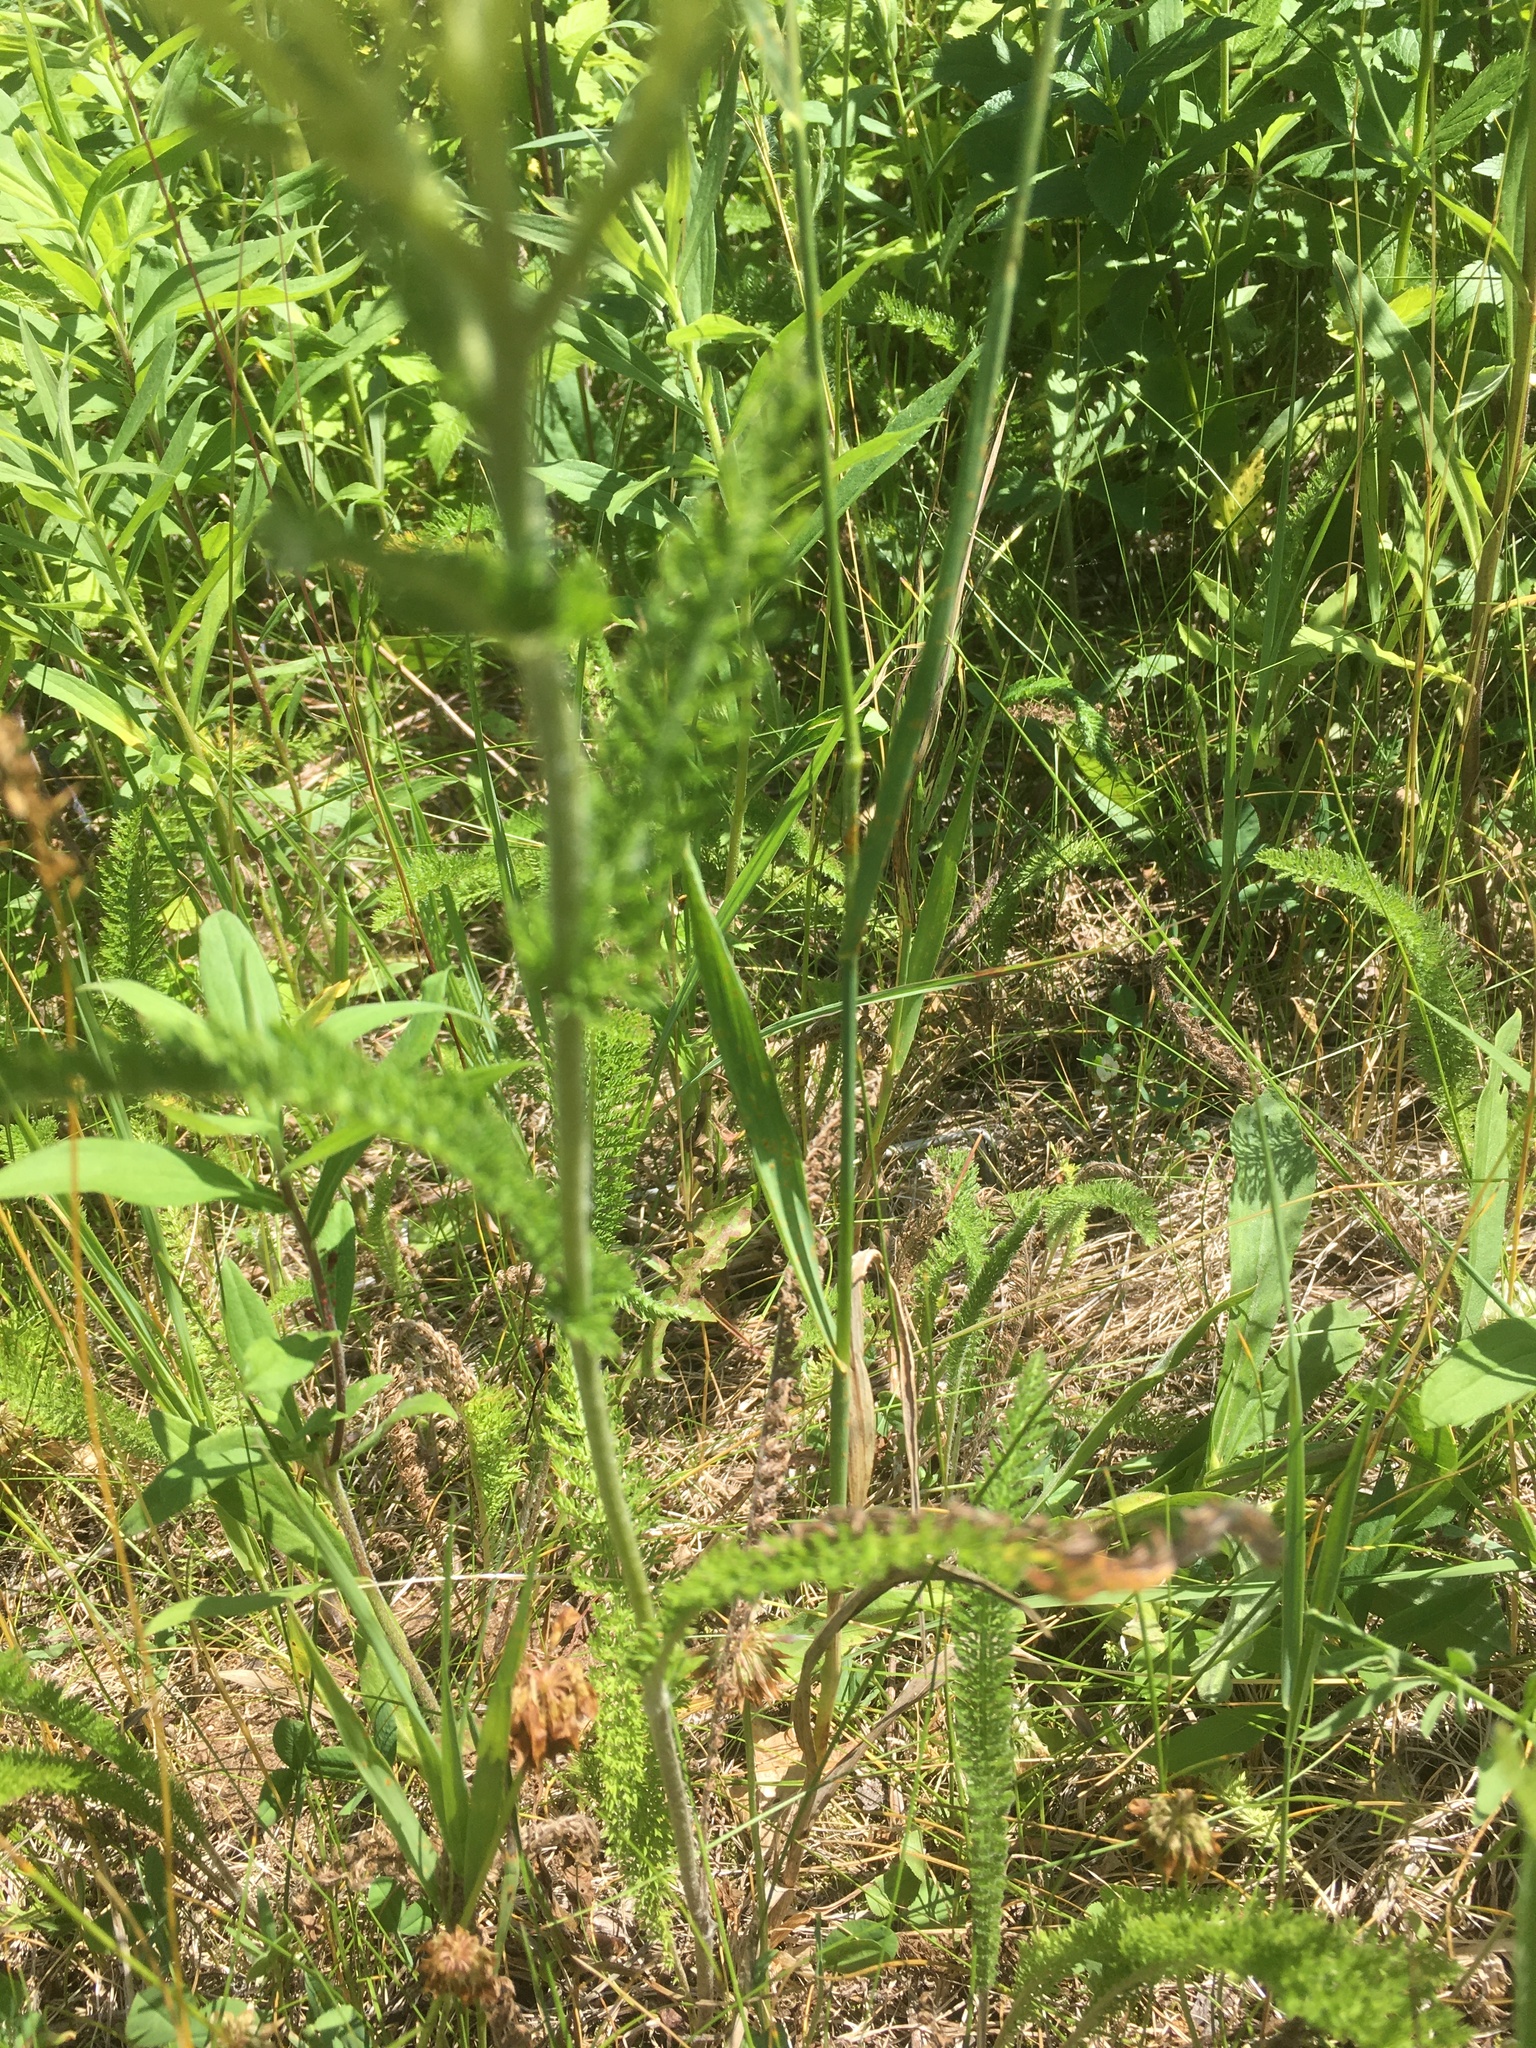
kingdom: Plantae
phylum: Tracheophyta
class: Magnoliopsida
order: Asterales
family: Asteraceae
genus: Achillea
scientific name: Achillea millefolium
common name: Yarrow
